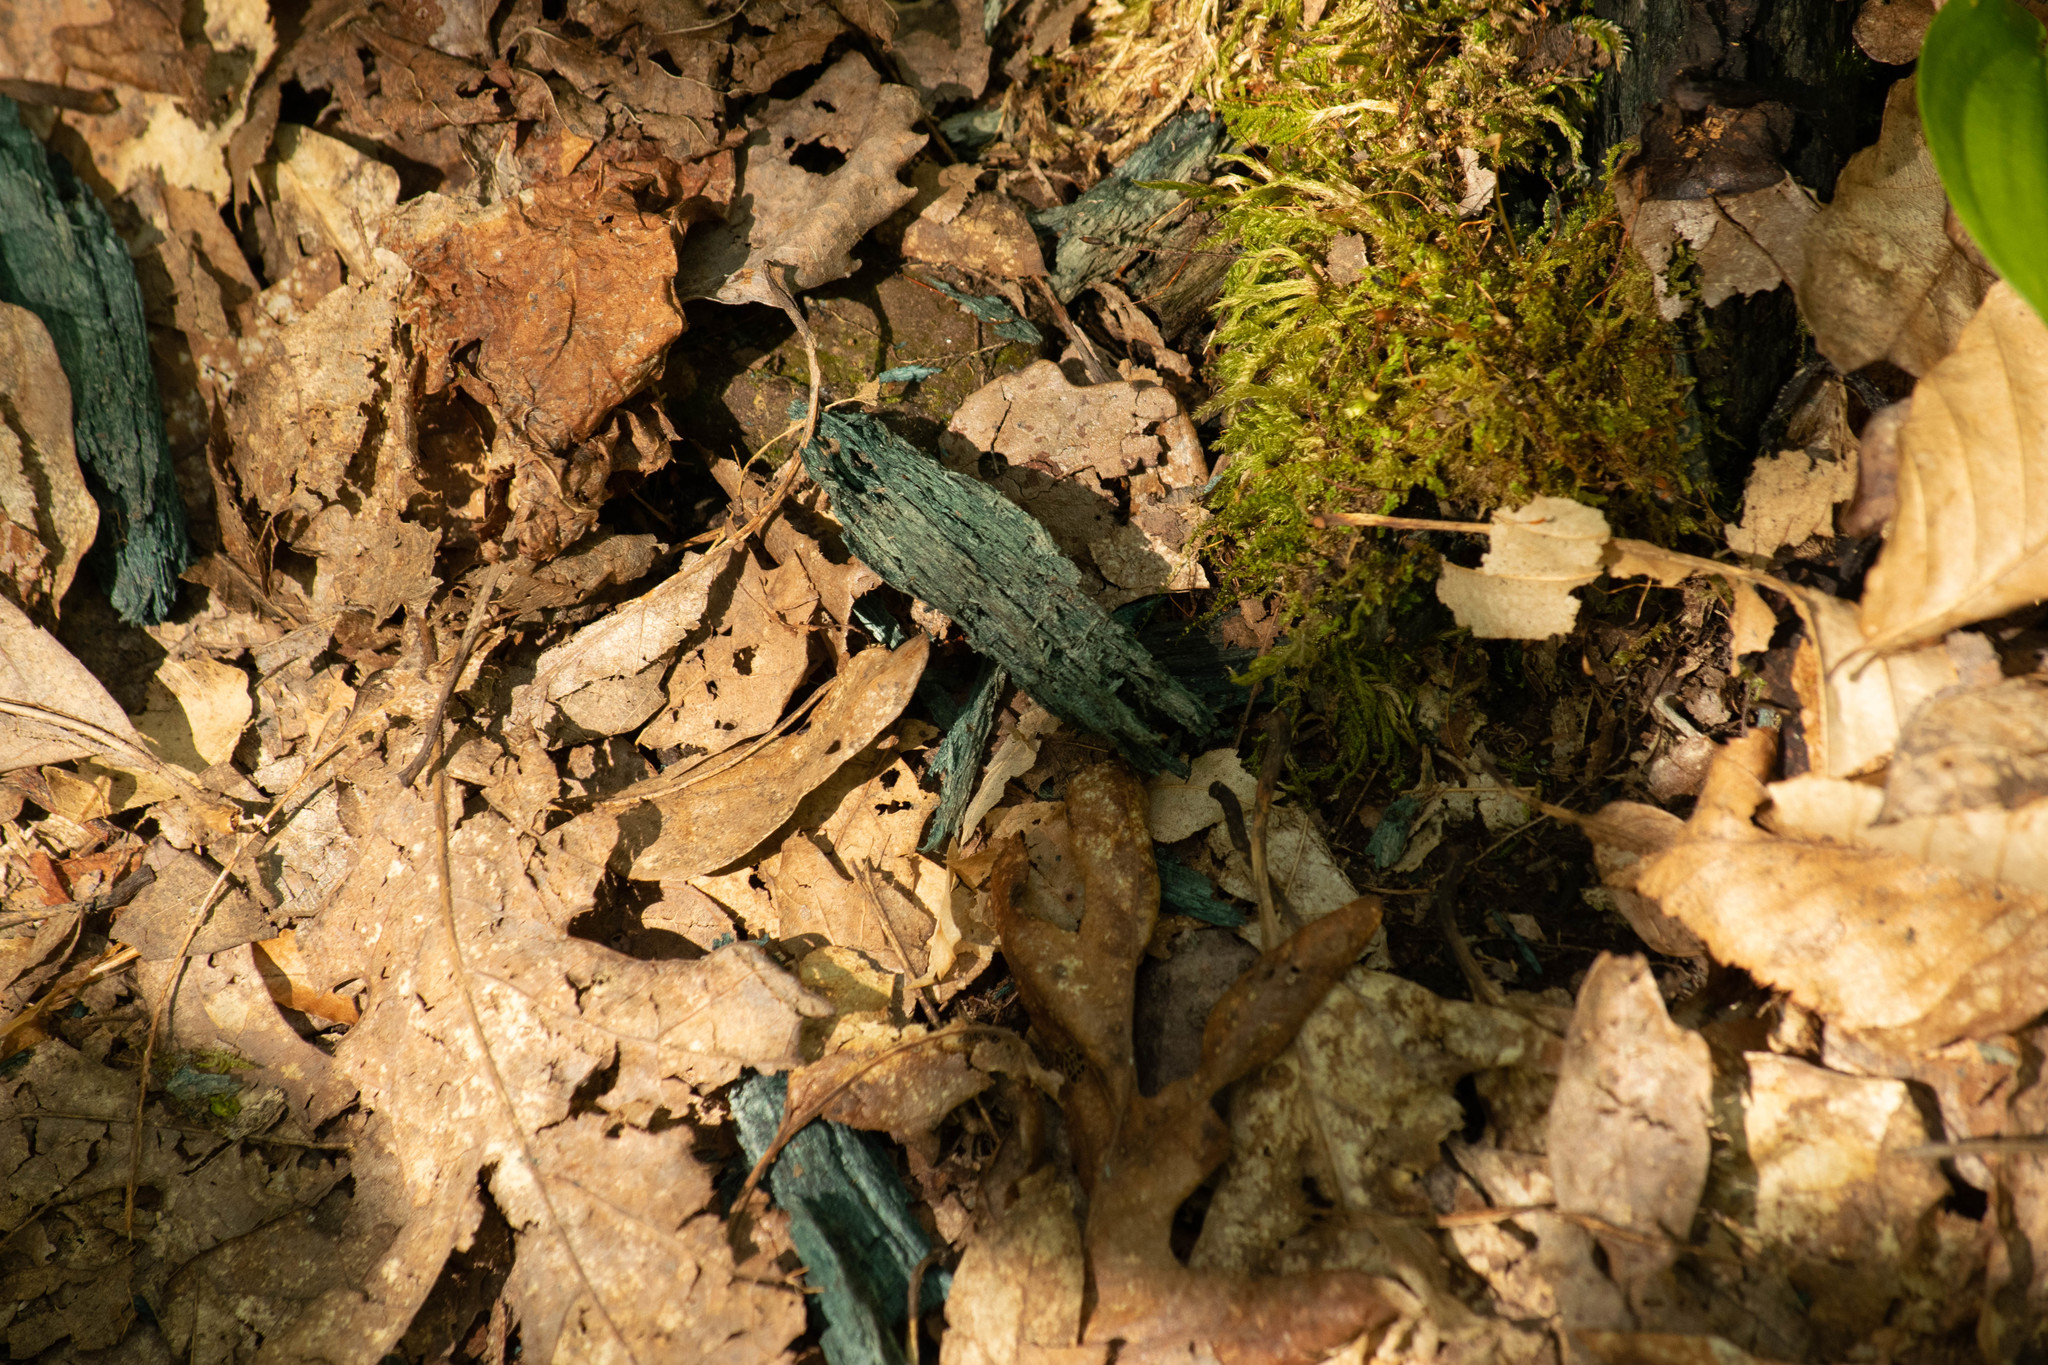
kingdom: Fungi
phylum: Ascomycota
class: Leotiomycetes
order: Helotiales
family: Chlorociboriaceae
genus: Chlorociboria
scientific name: Chlorociboria
